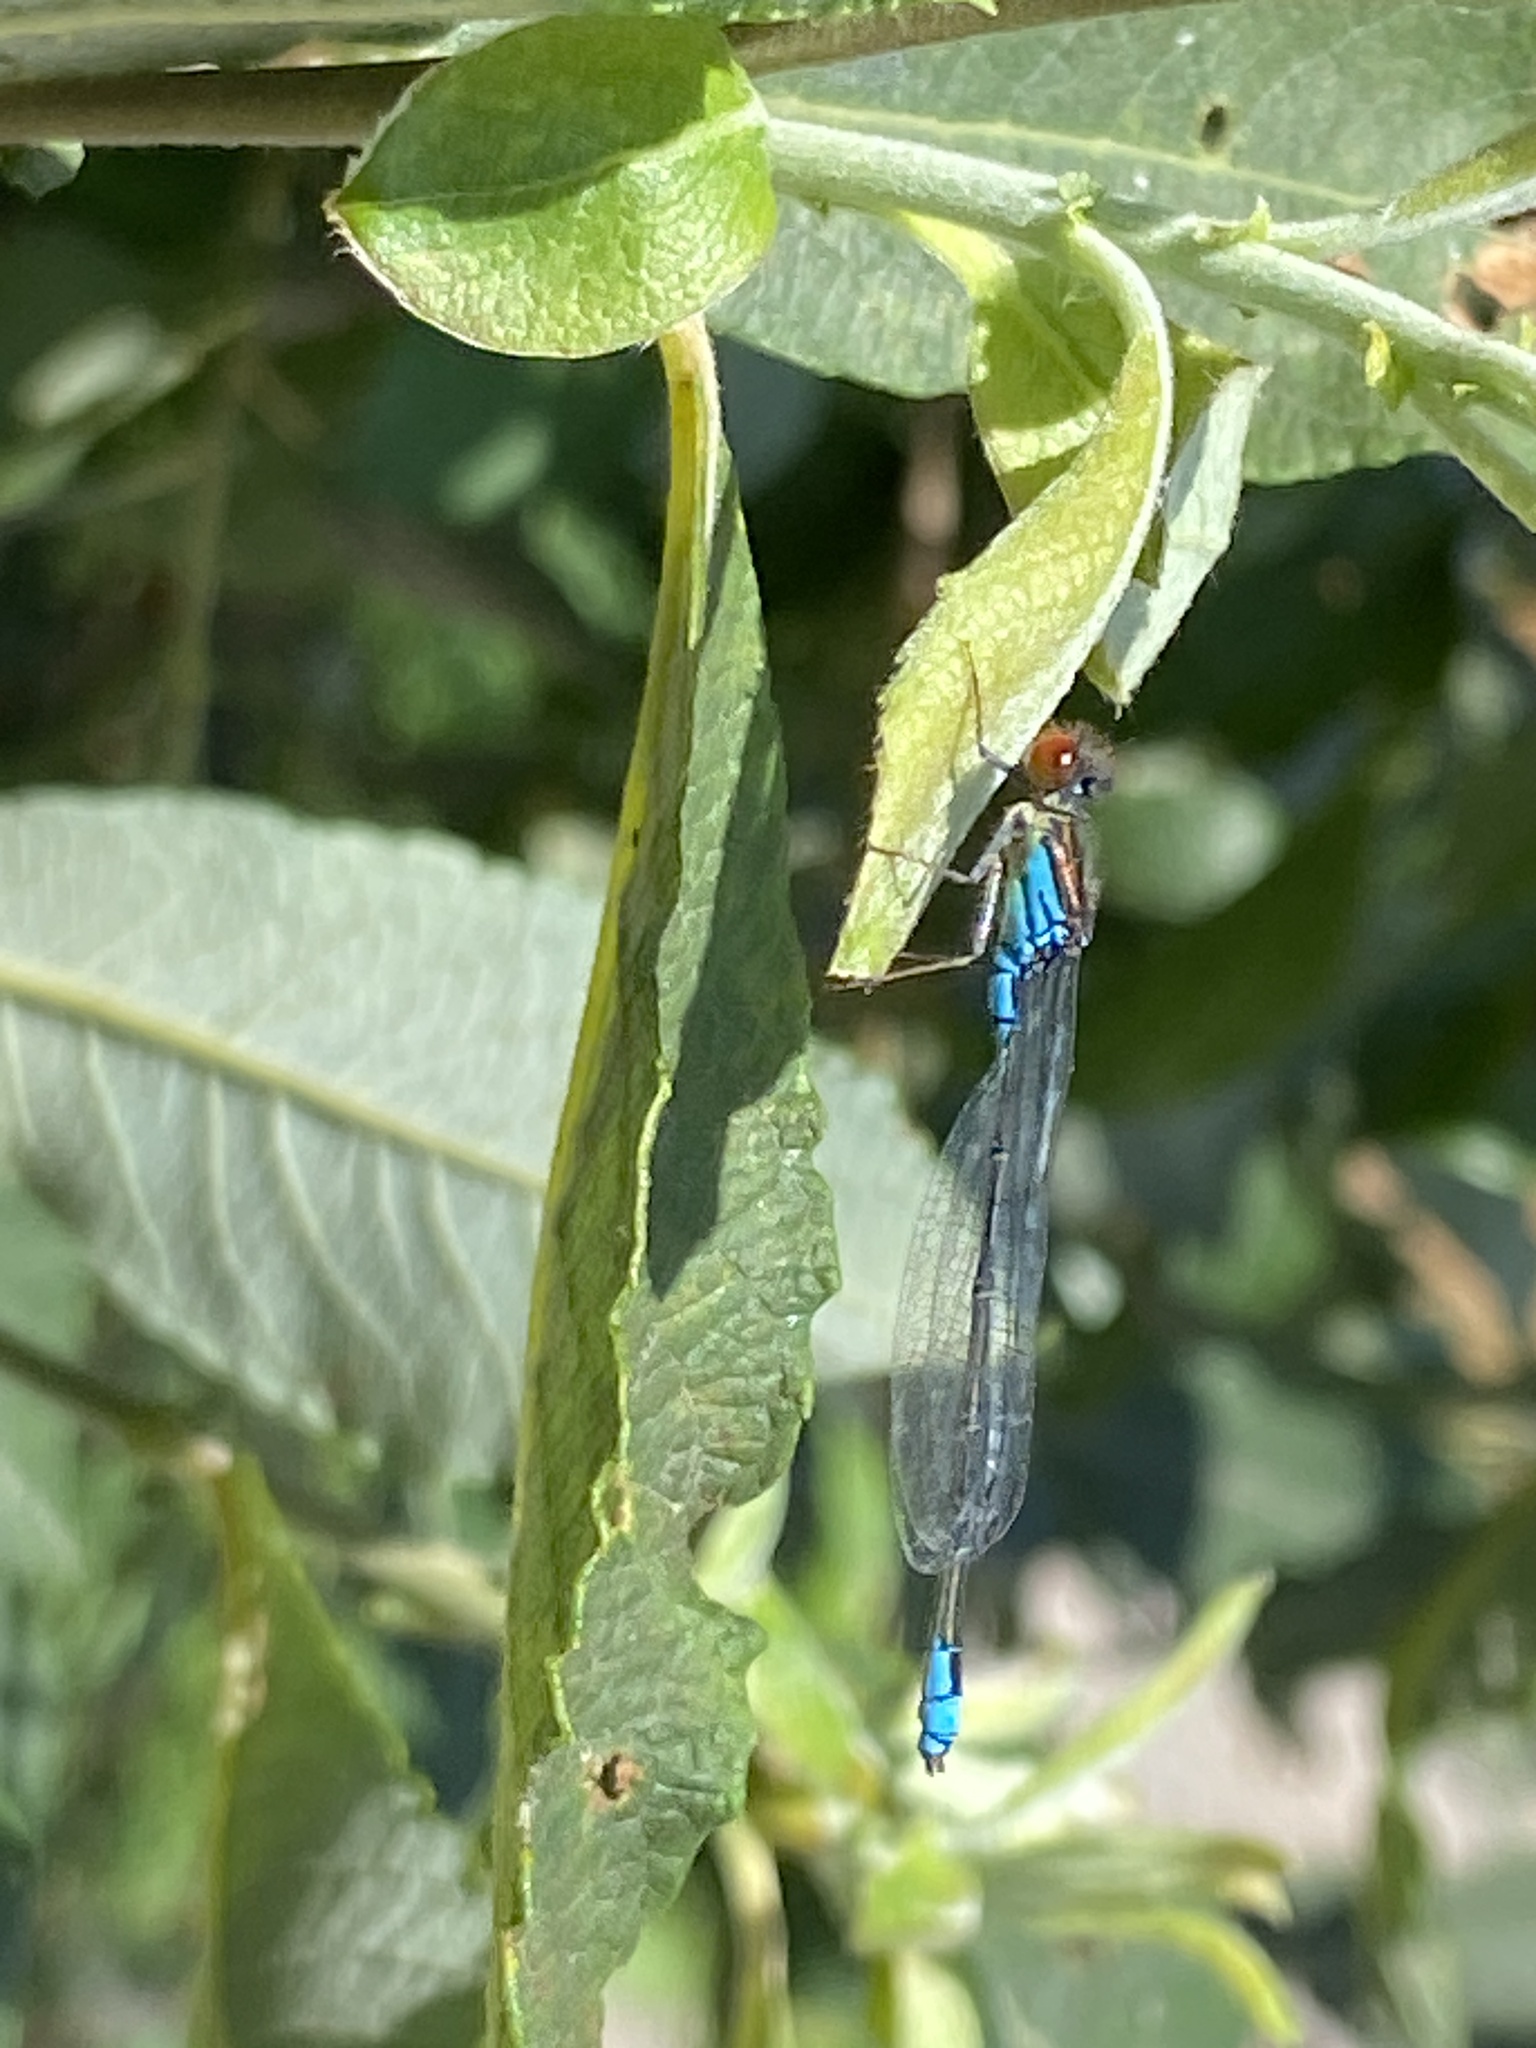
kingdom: Animalia
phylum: Arthropoda
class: Insecta
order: Odonata
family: Coenagrionidae
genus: Erythromma
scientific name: Erythromma viridulum
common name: Small red-eyed damselfly
